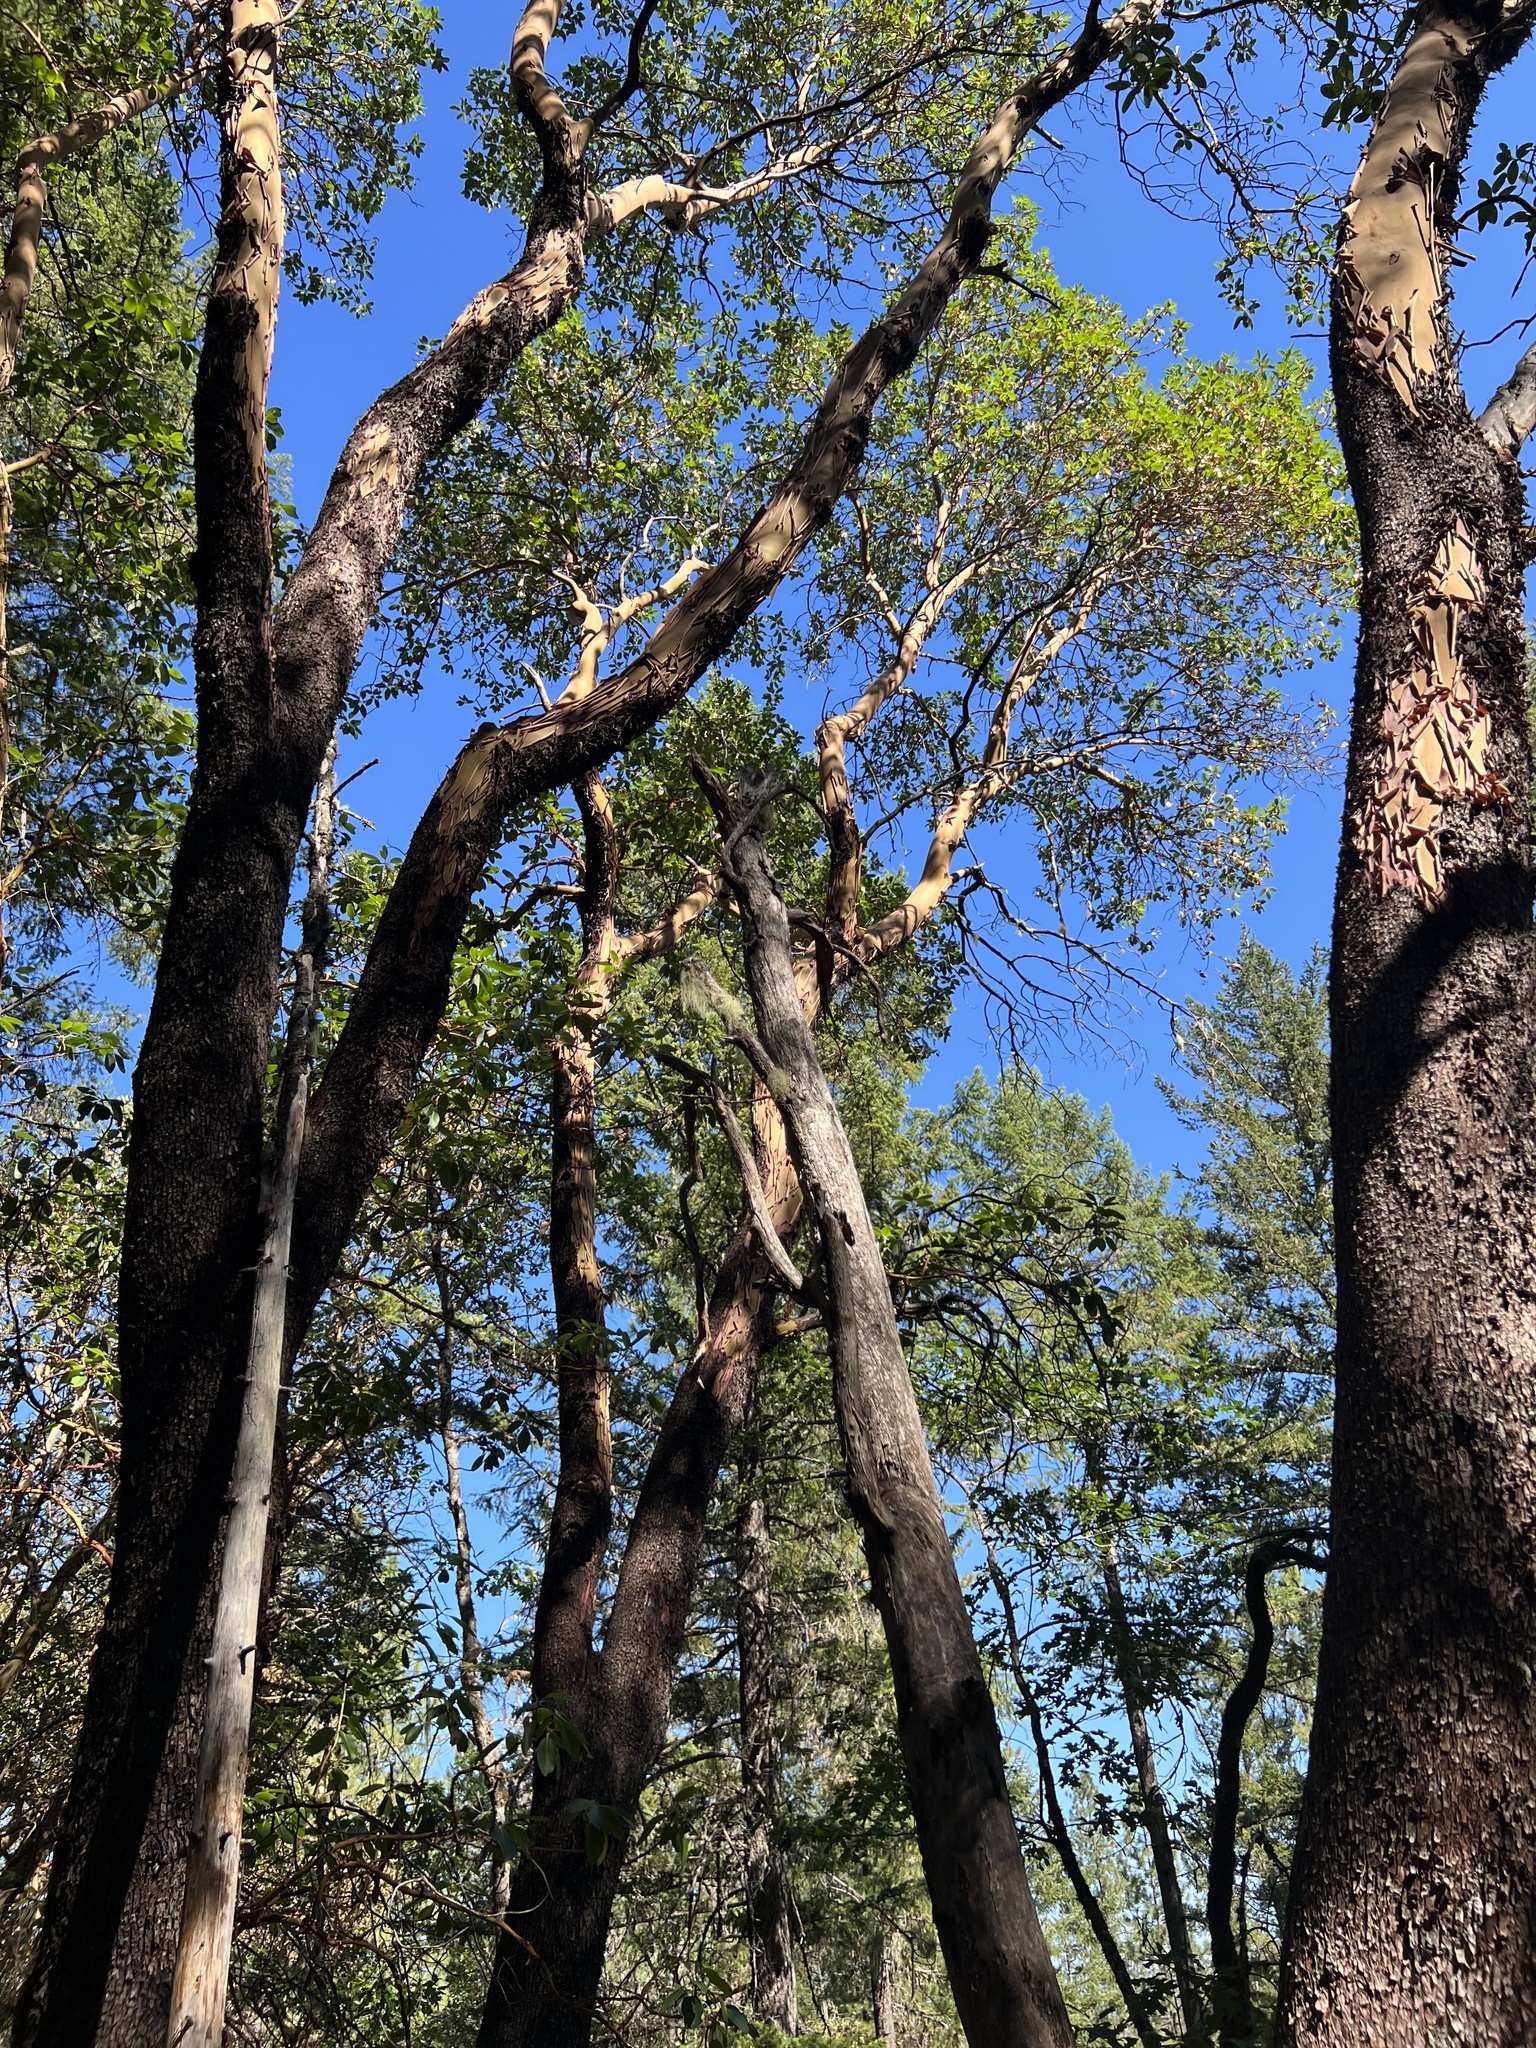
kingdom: Plantae
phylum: Tracheophyta
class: Magnoliopsida
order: Ericales
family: Ericaceae
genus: Arbutus
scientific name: Arbutus menziesii
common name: Pacific madrone
